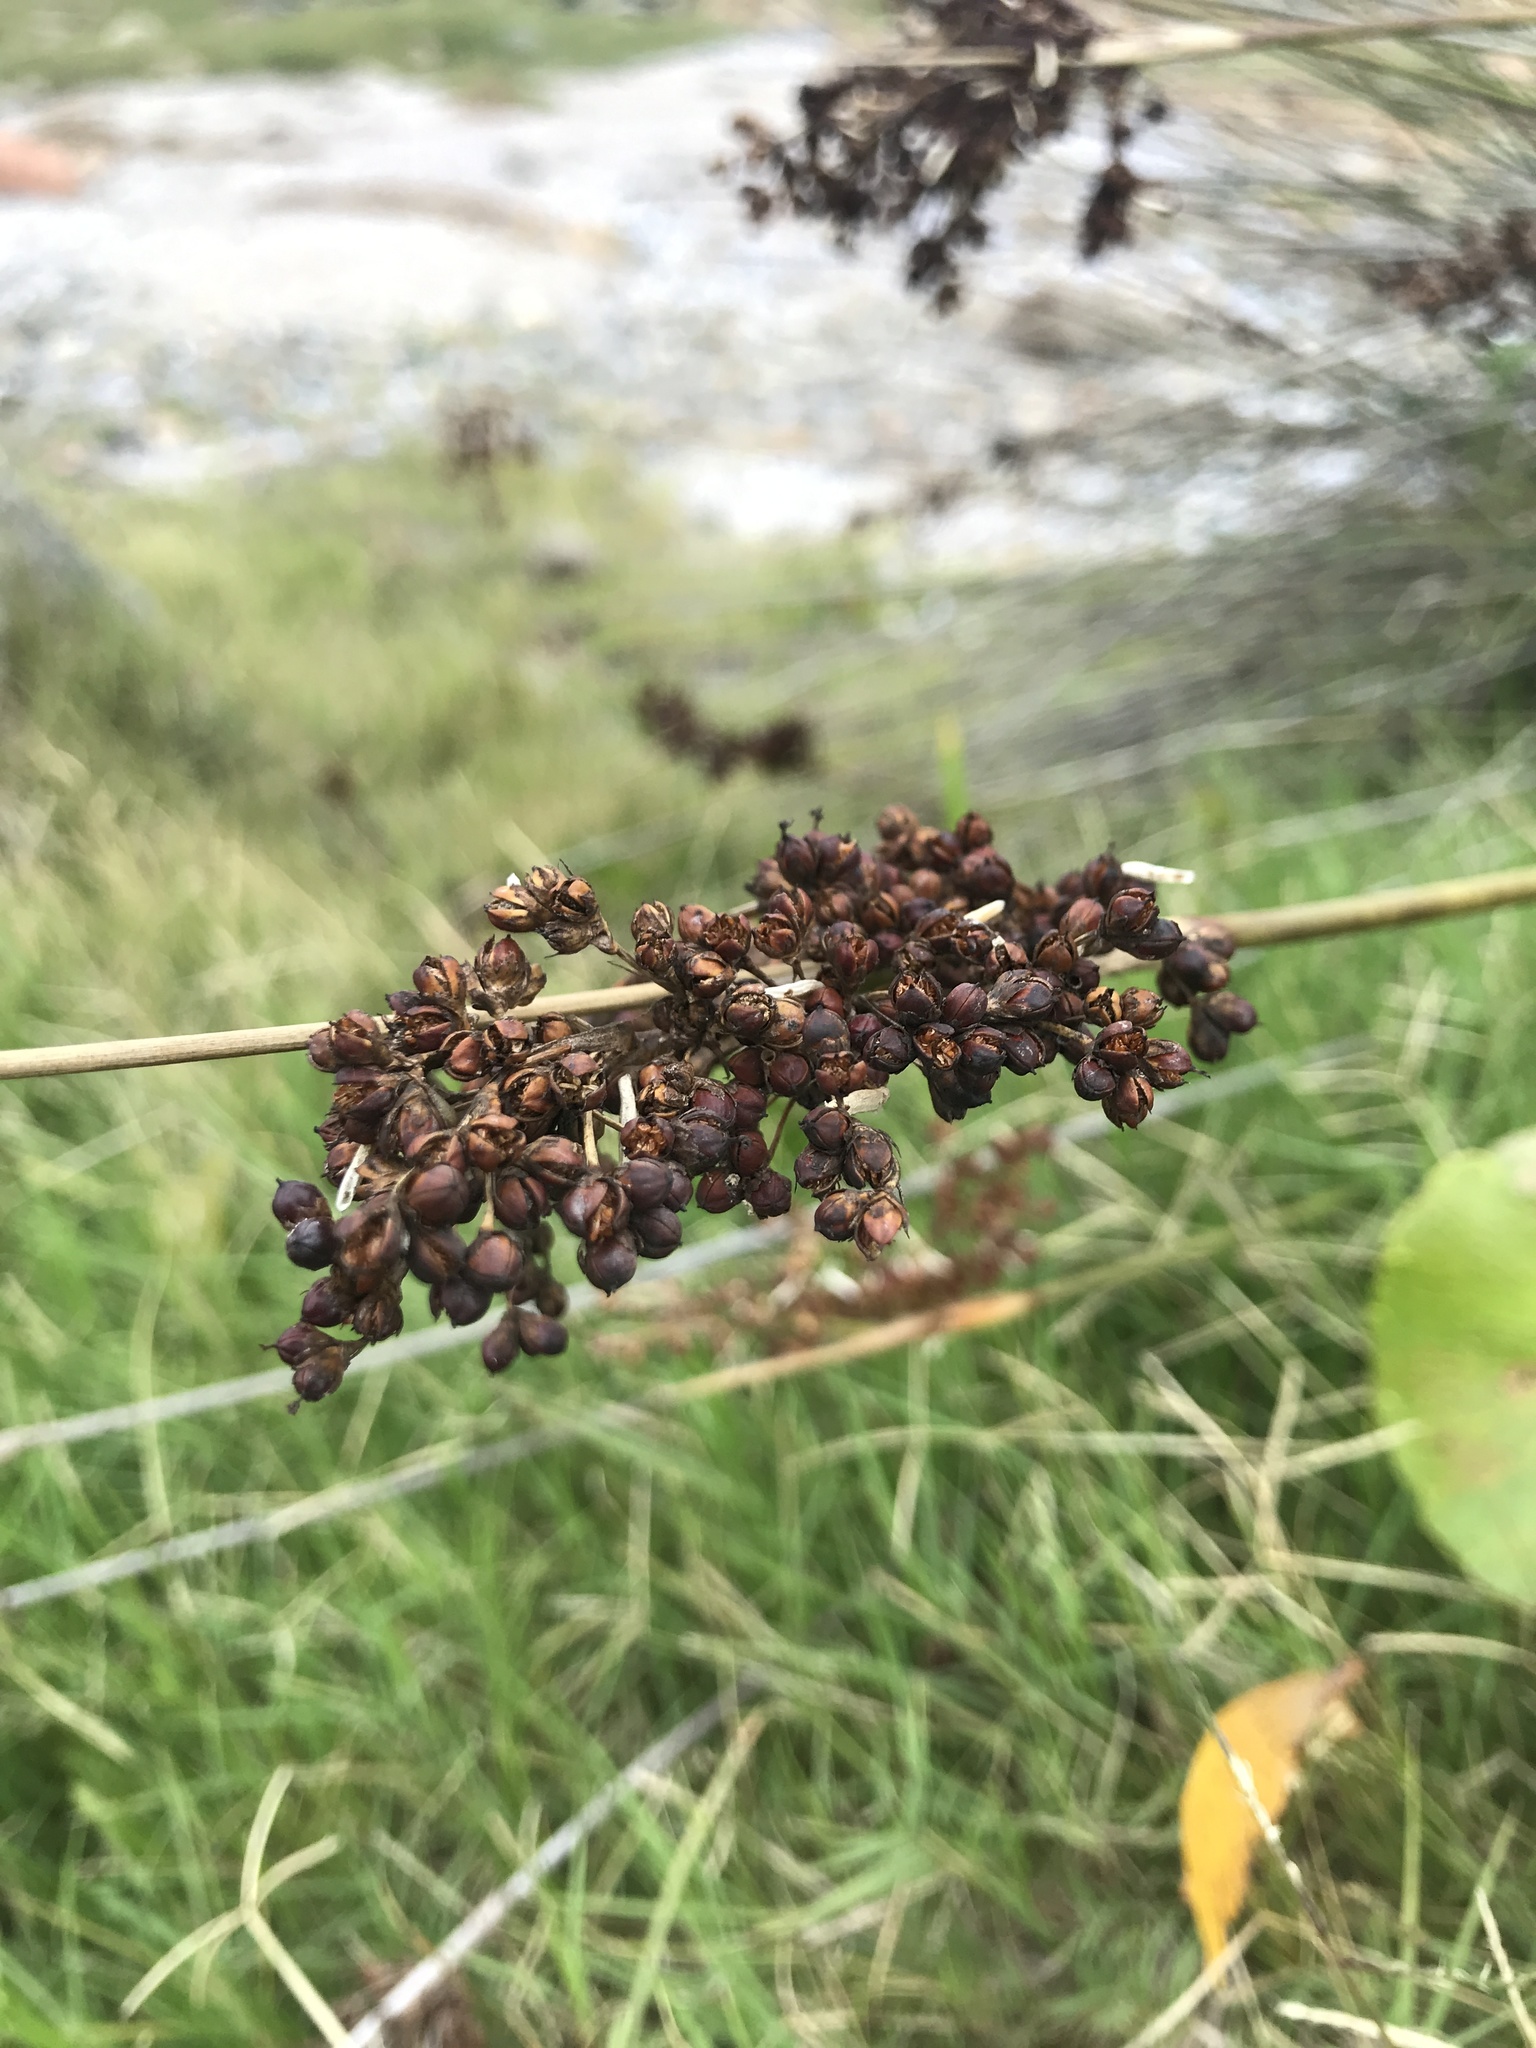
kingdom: Plantae
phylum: Tracheophyta
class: Liliopsida
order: Poales
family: Juncaceae
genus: Juncus
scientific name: Juncus acutus
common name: Sharp rush
